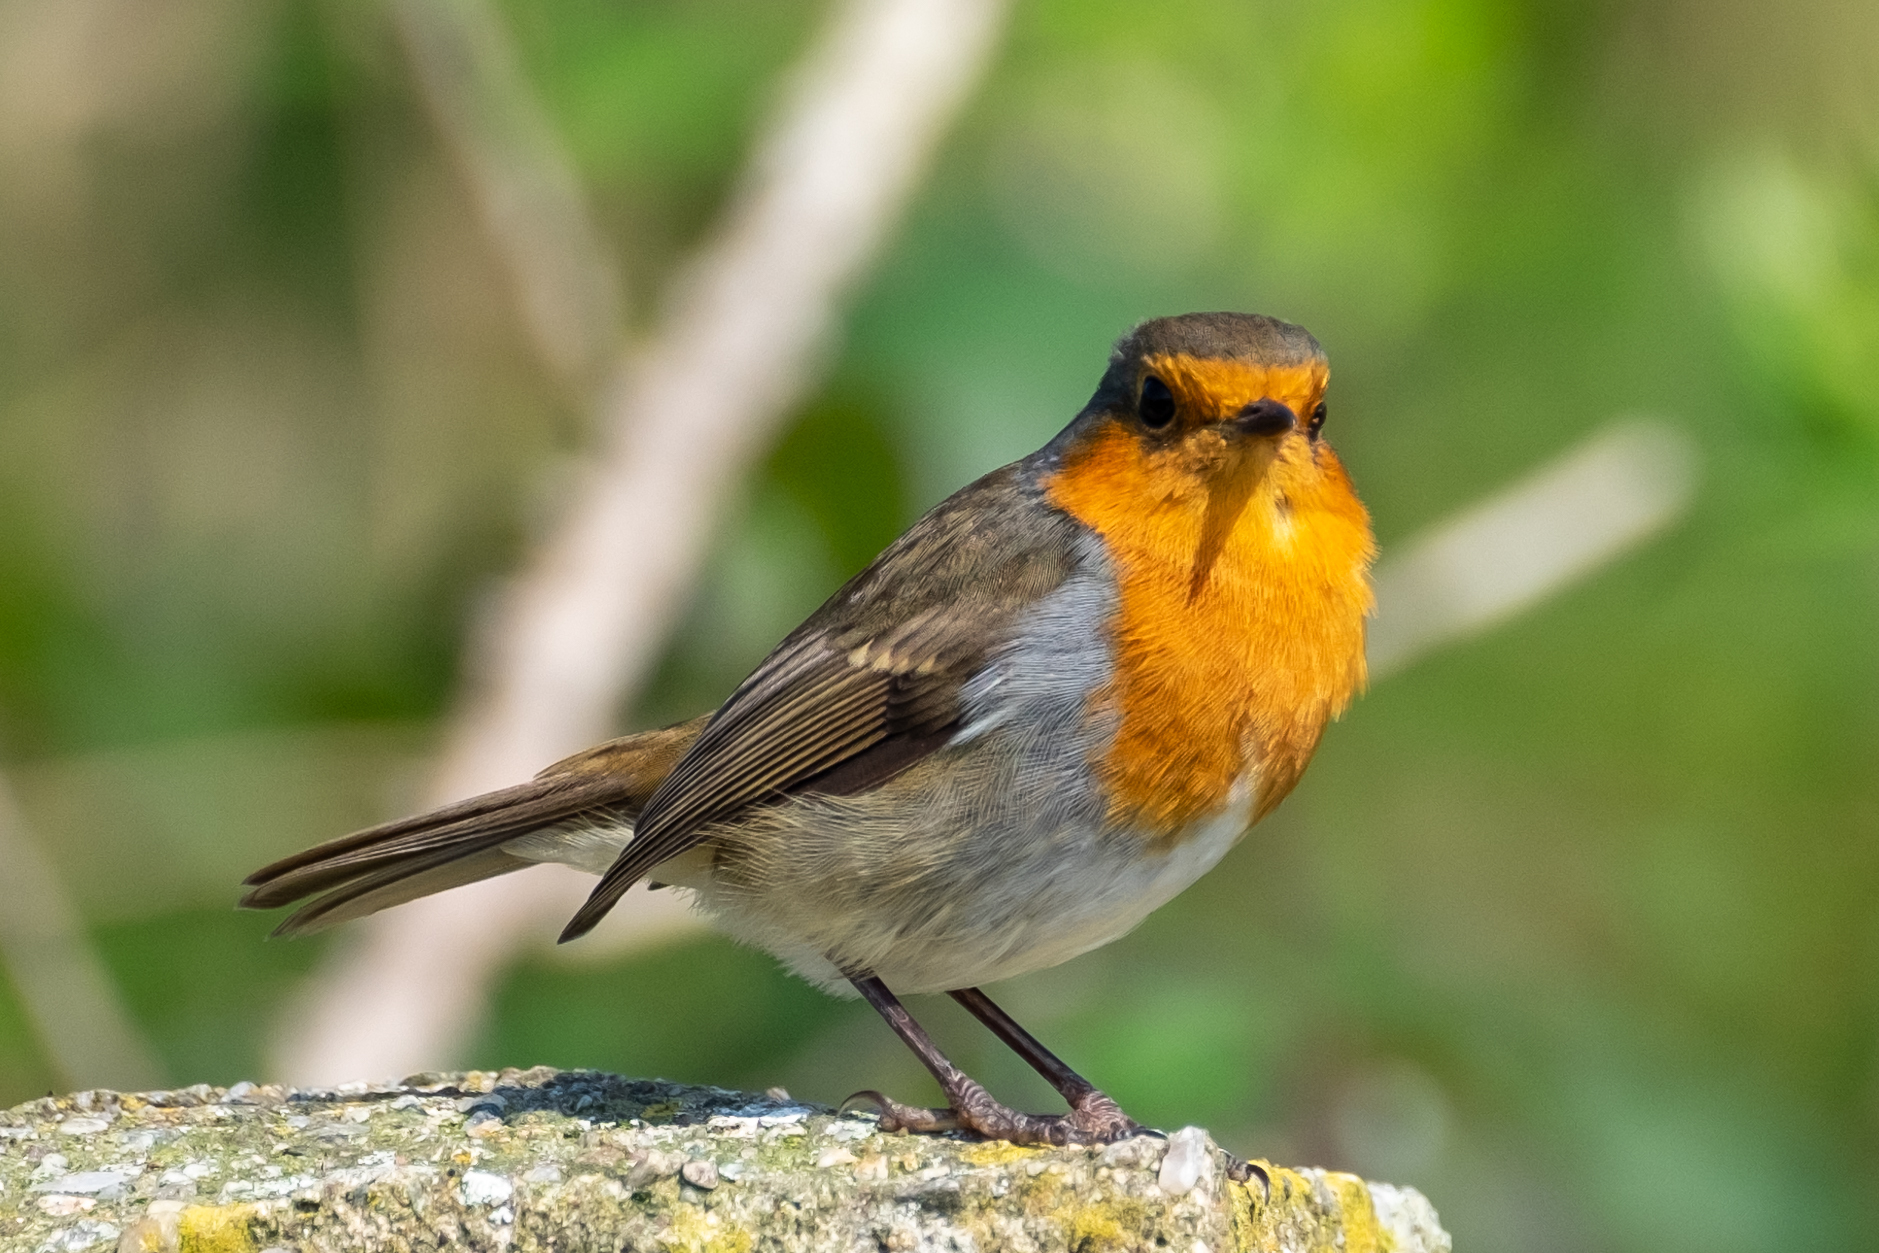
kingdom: Animalia
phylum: Chordata
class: Aves
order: Passeriformes
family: Muscicapidae
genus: Erithacus
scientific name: Erithacus rubecula
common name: European robin
